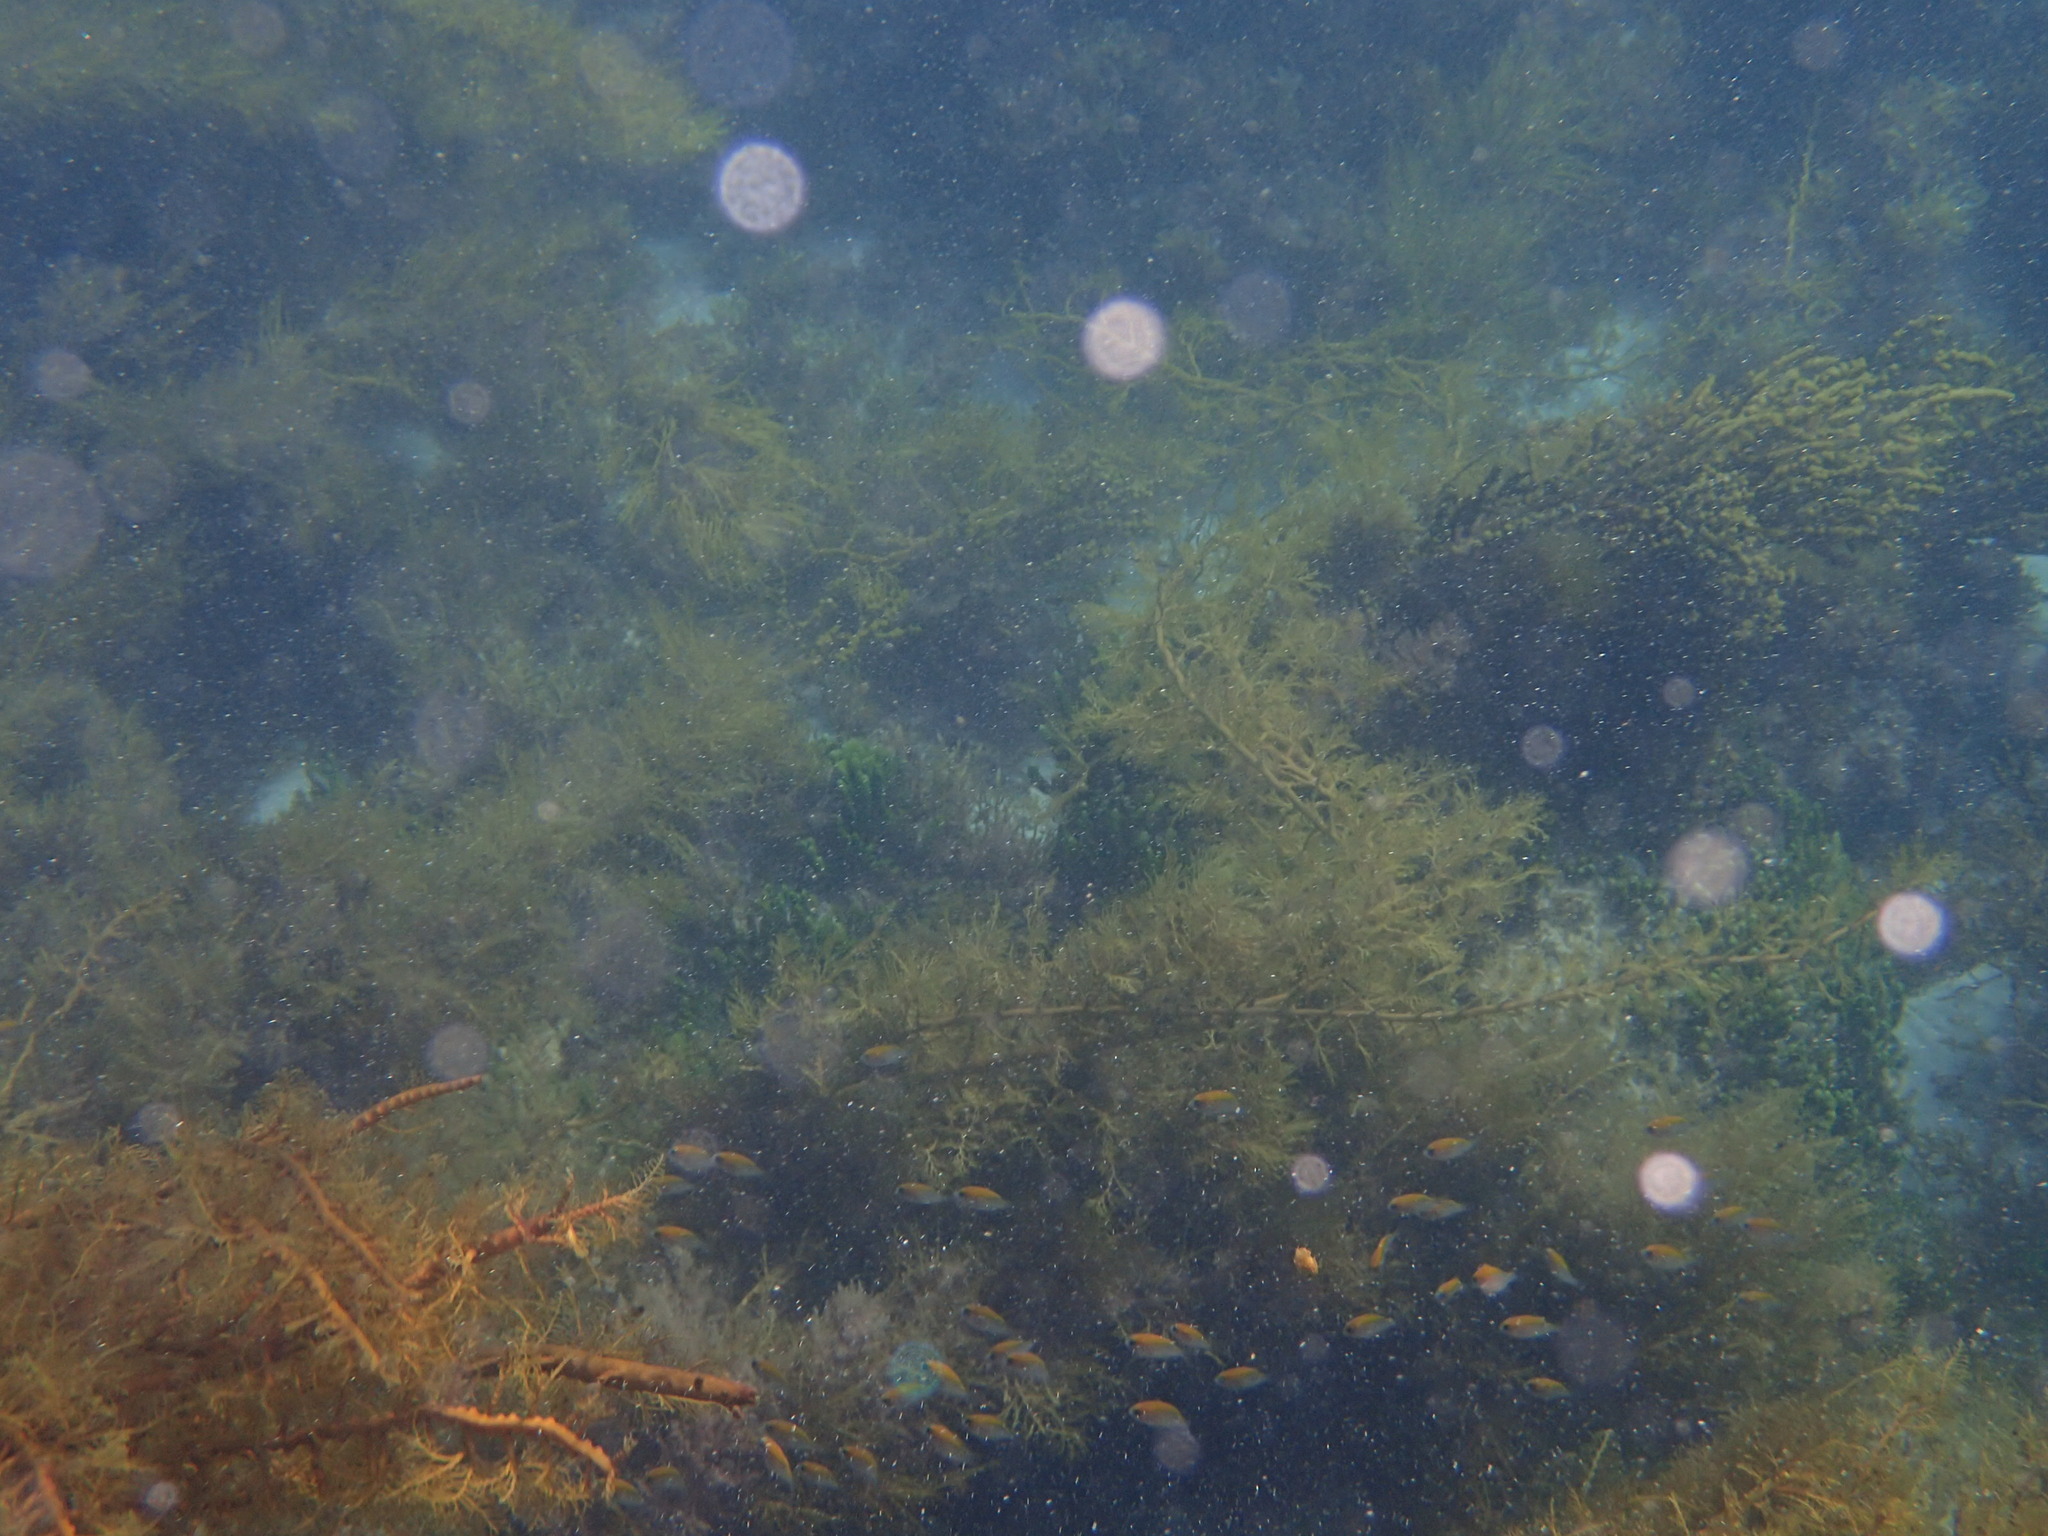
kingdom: Animalia
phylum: Chordata
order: Perciformes
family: Pomacentridae
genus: Chromis
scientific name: Chromis klunzingeri
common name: Black-headed chromis
